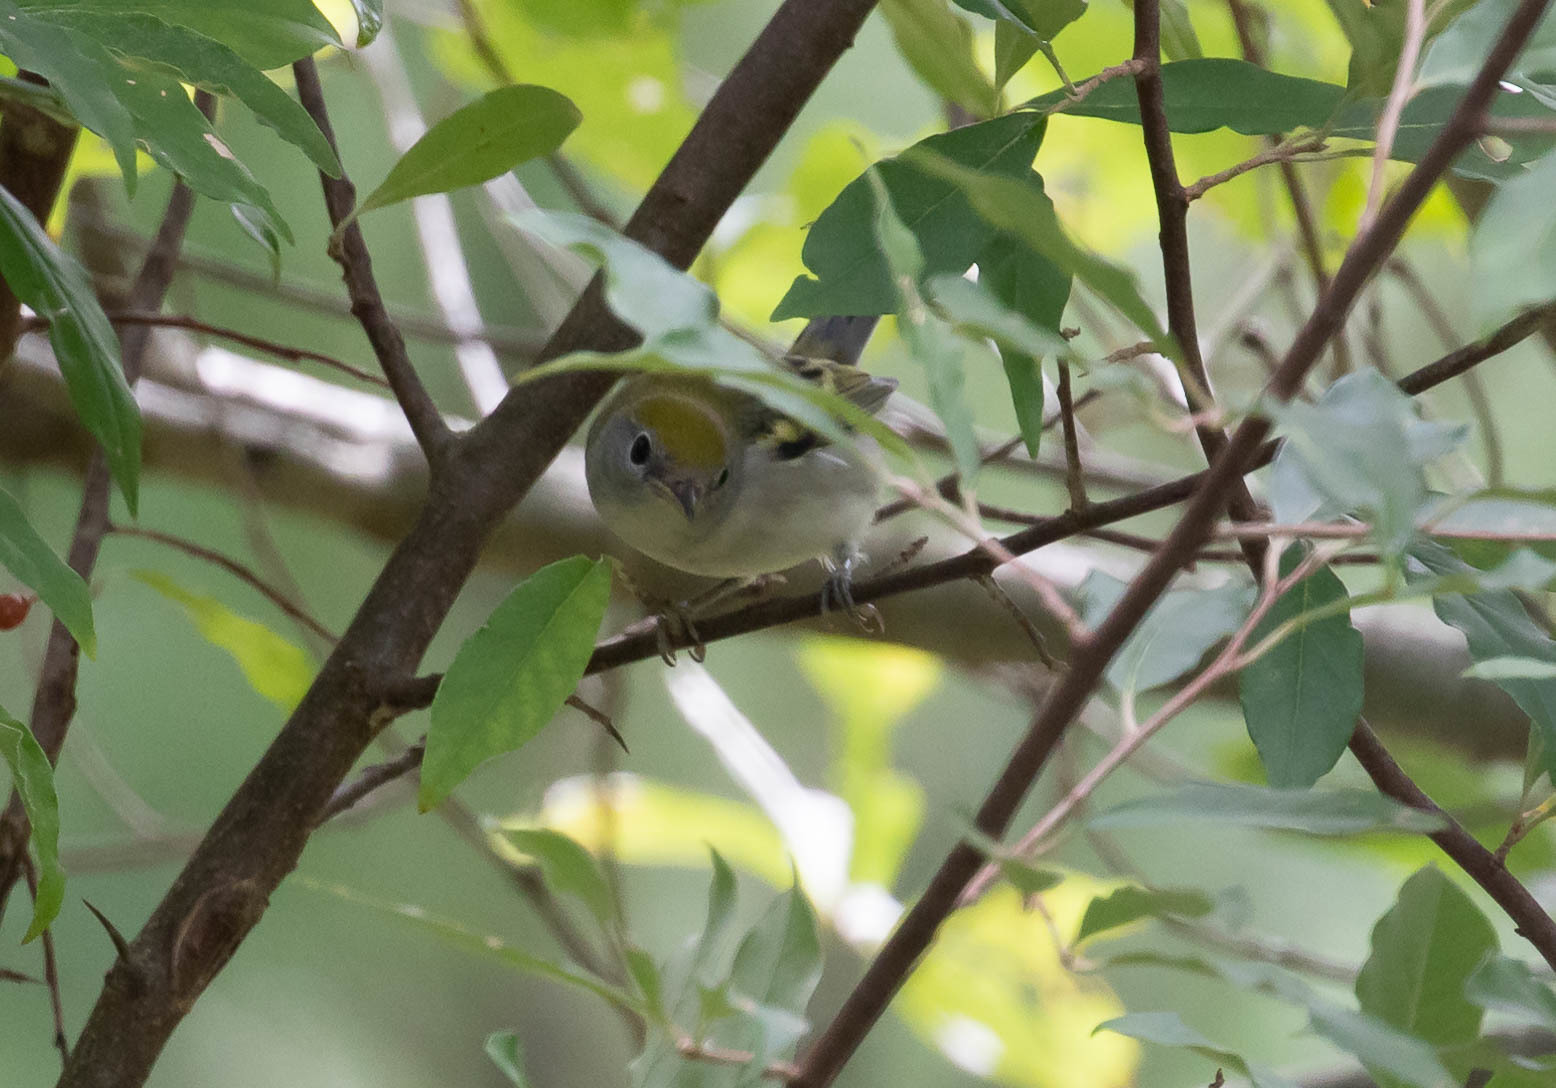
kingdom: Animalia
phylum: Chordata
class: Aves
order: Passeriformes
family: Parulidae
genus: Setophaga
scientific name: Setophaga pensylvanica
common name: Chestnut-sided warbler
